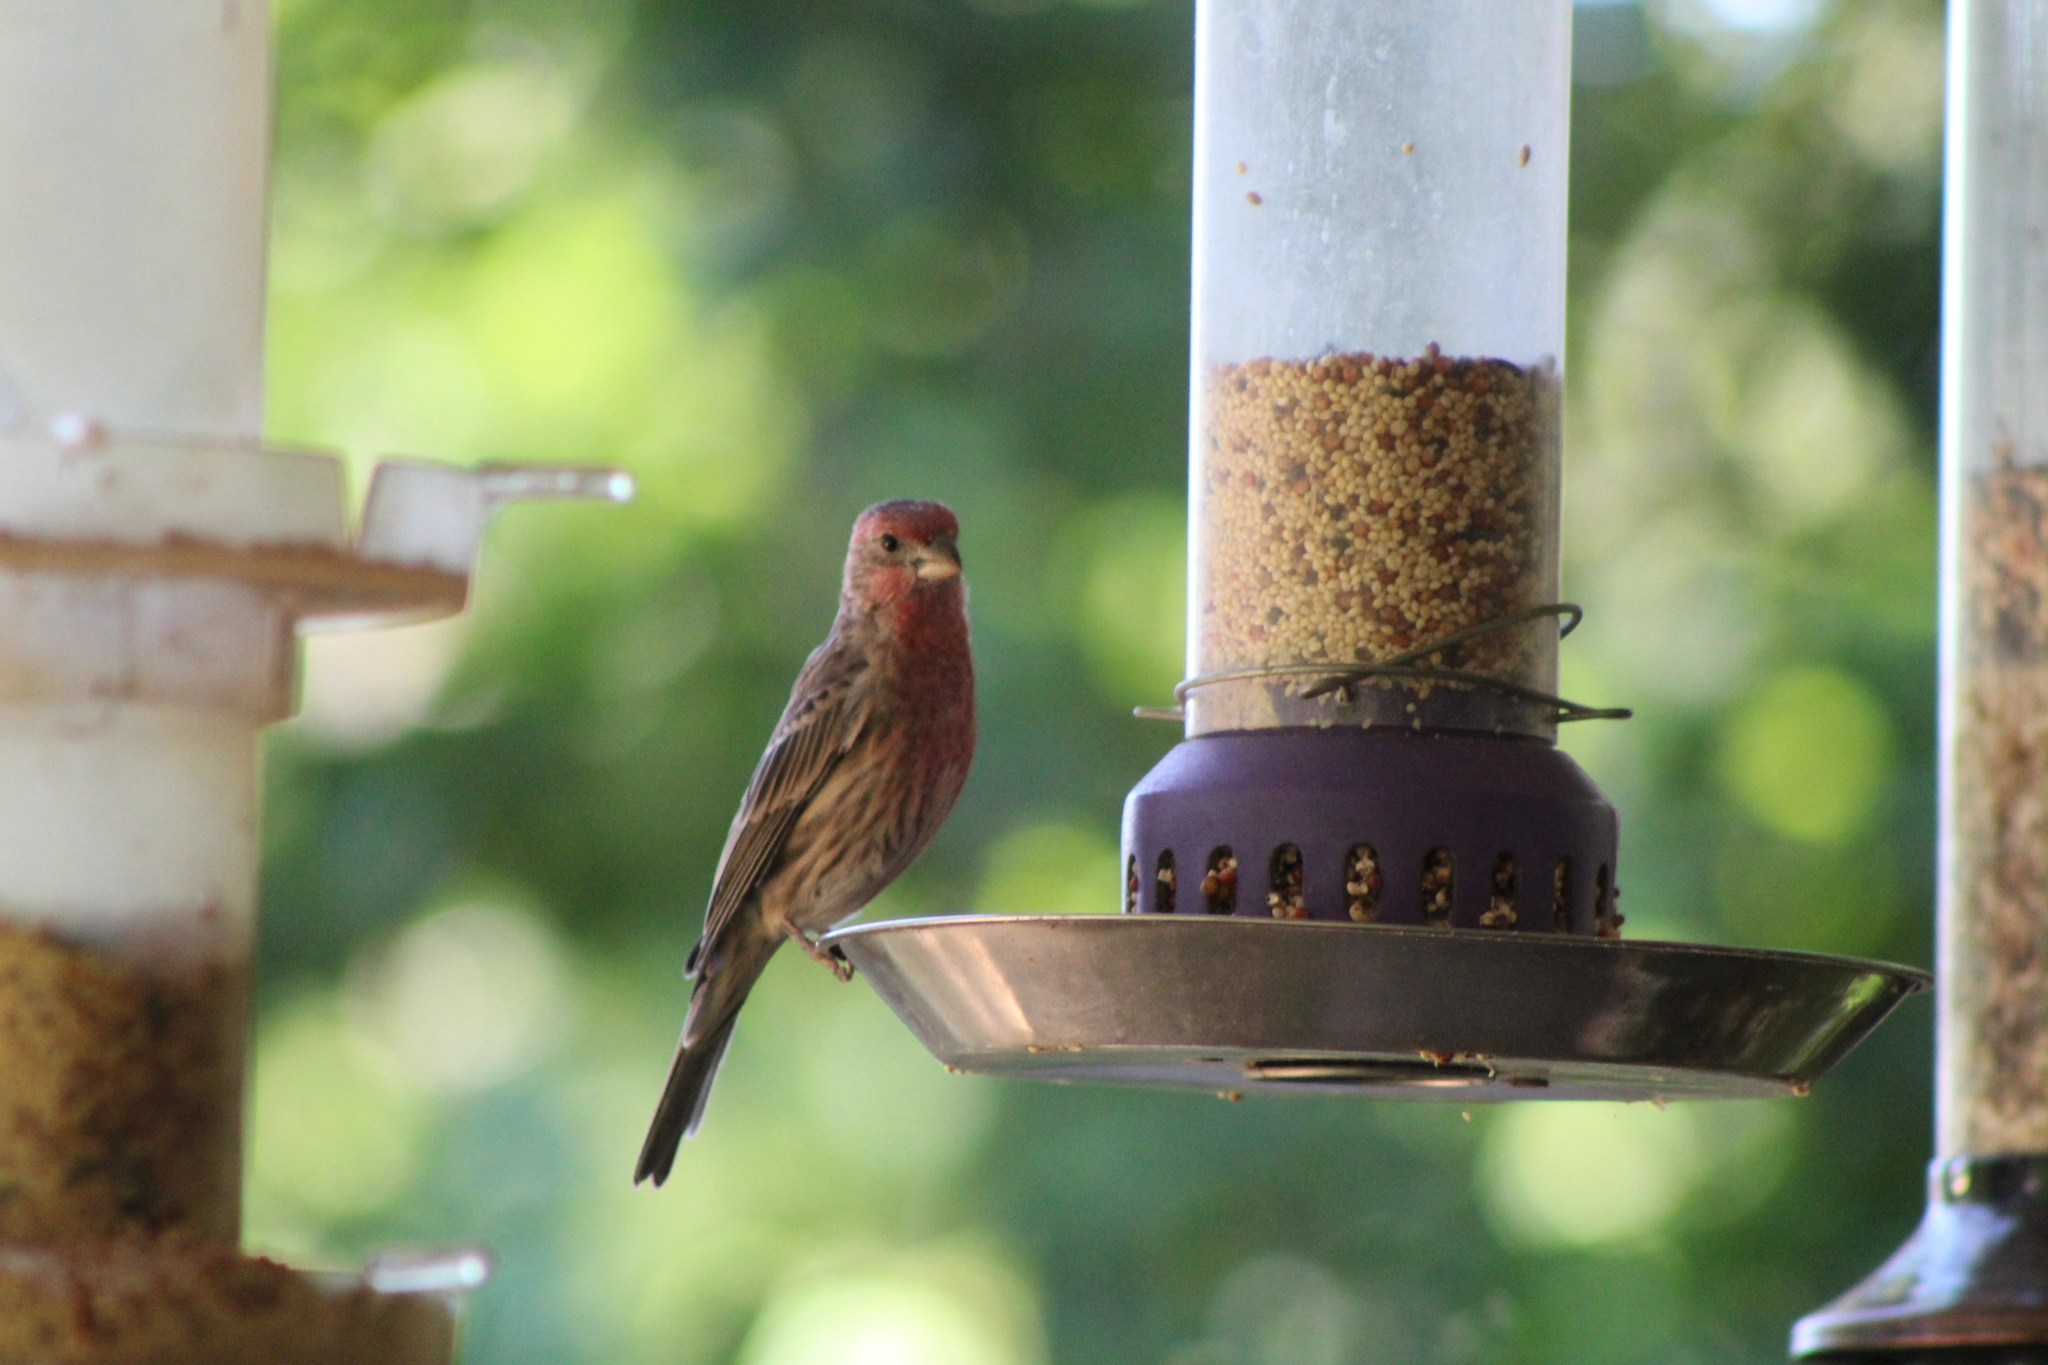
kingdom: Animalia
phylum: Chordata
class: Aves
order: Passeriformes
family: Fringillidae
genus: Haemorhous
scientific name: Haemorhous mexicanus
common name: House finch
